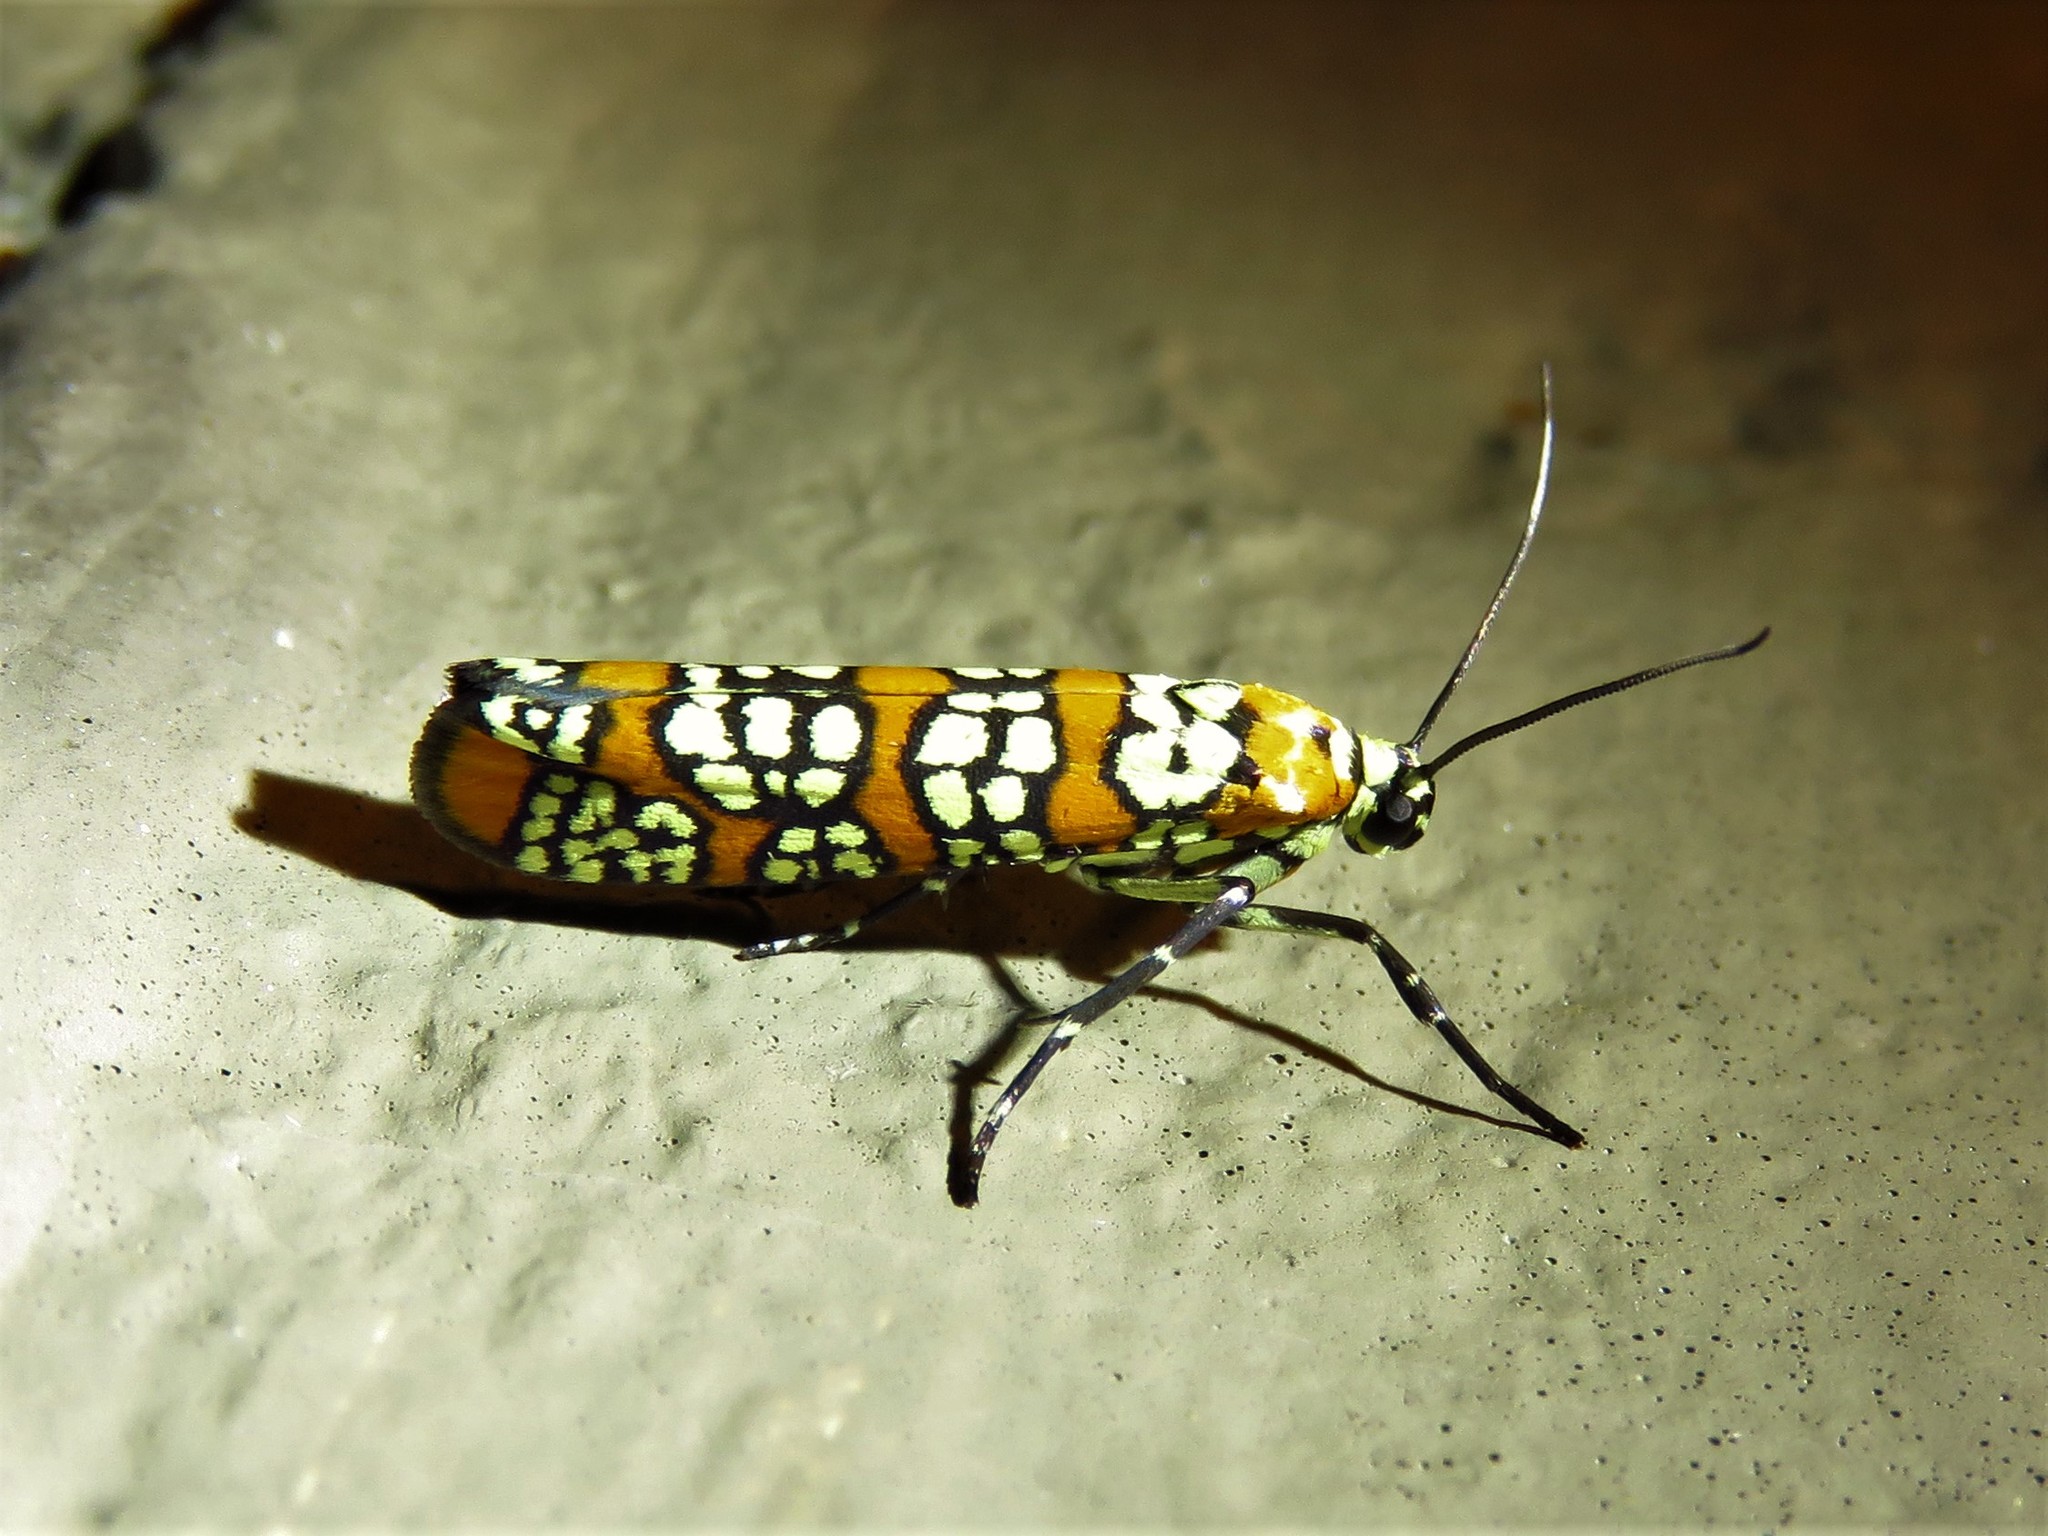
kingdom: Animalia
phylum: Arthropoda
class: Insecta
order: Lepidoptera
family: Attevidae
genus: Atteva
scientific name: Atteva punctella
